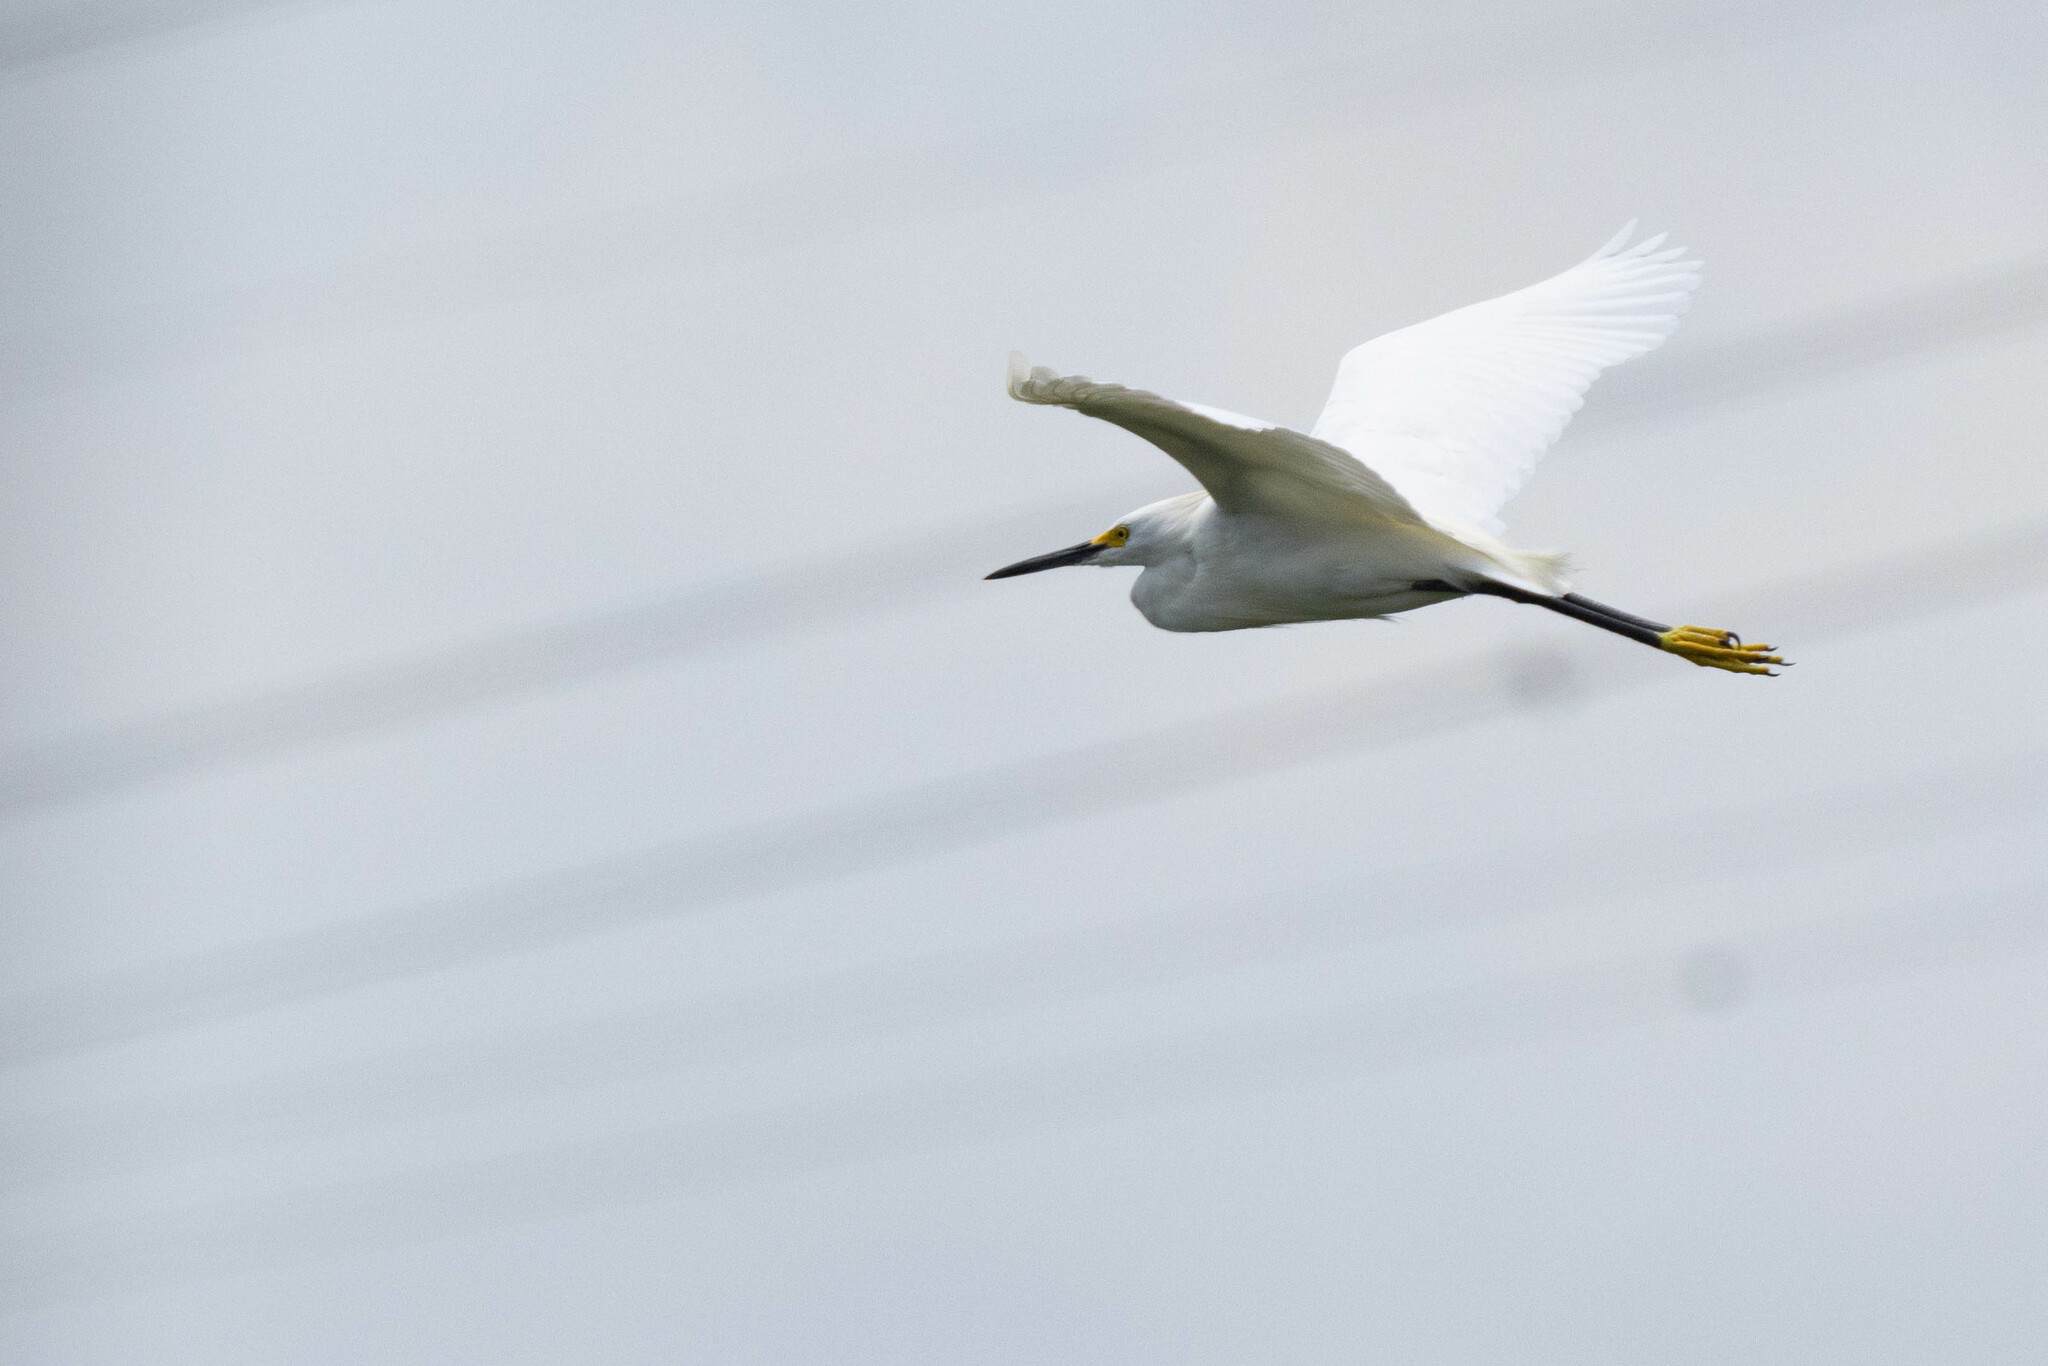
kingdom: Animalia
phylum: Chordata
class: Aves
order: Pelecaniformes
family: Ardeidae
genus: Egretta
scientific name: Egretta thula
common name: Snowy egret
